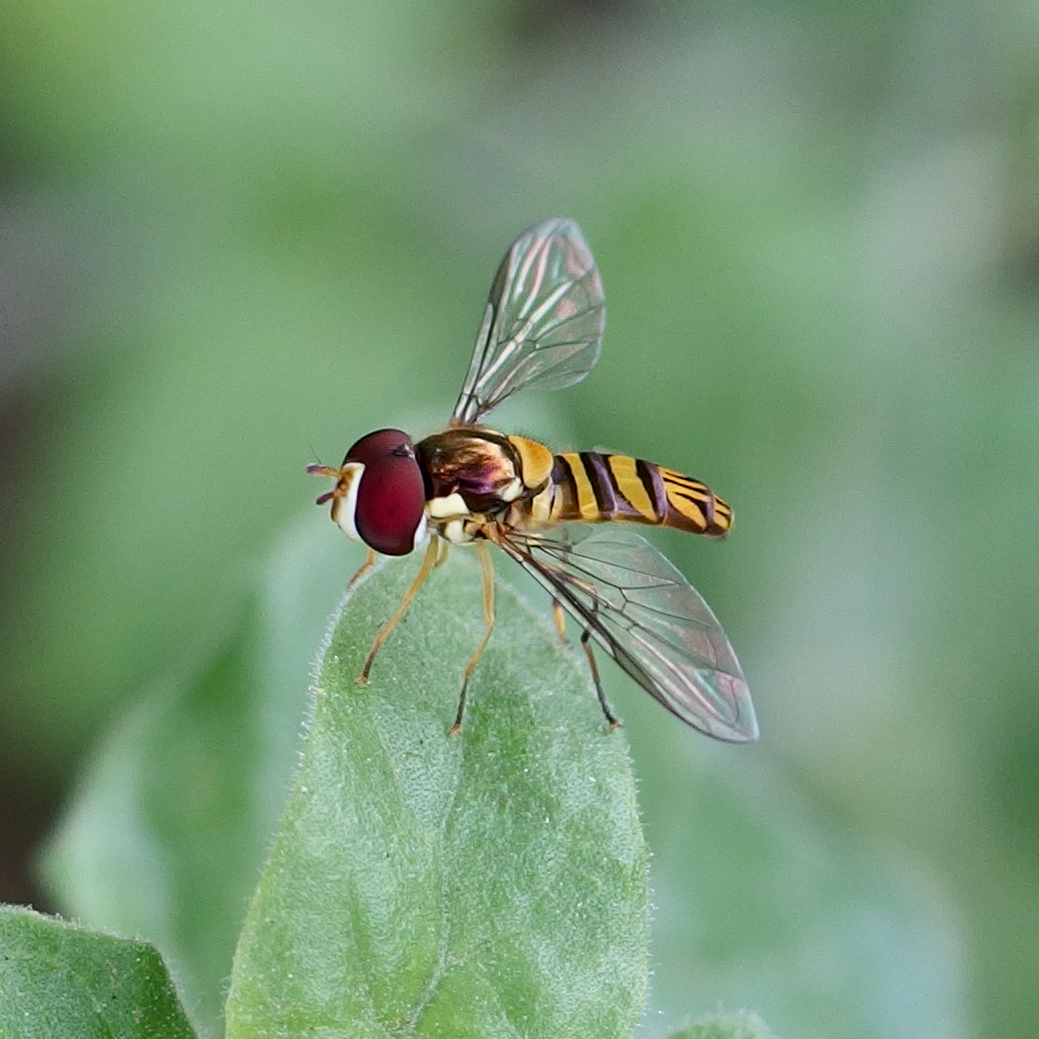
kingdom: Animalia
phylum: Arthropoda
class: Insecta
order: Diptera
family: Syrphidae
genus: Allograpta
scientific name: Allograpta obliqua
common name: Common oblique syrphid
